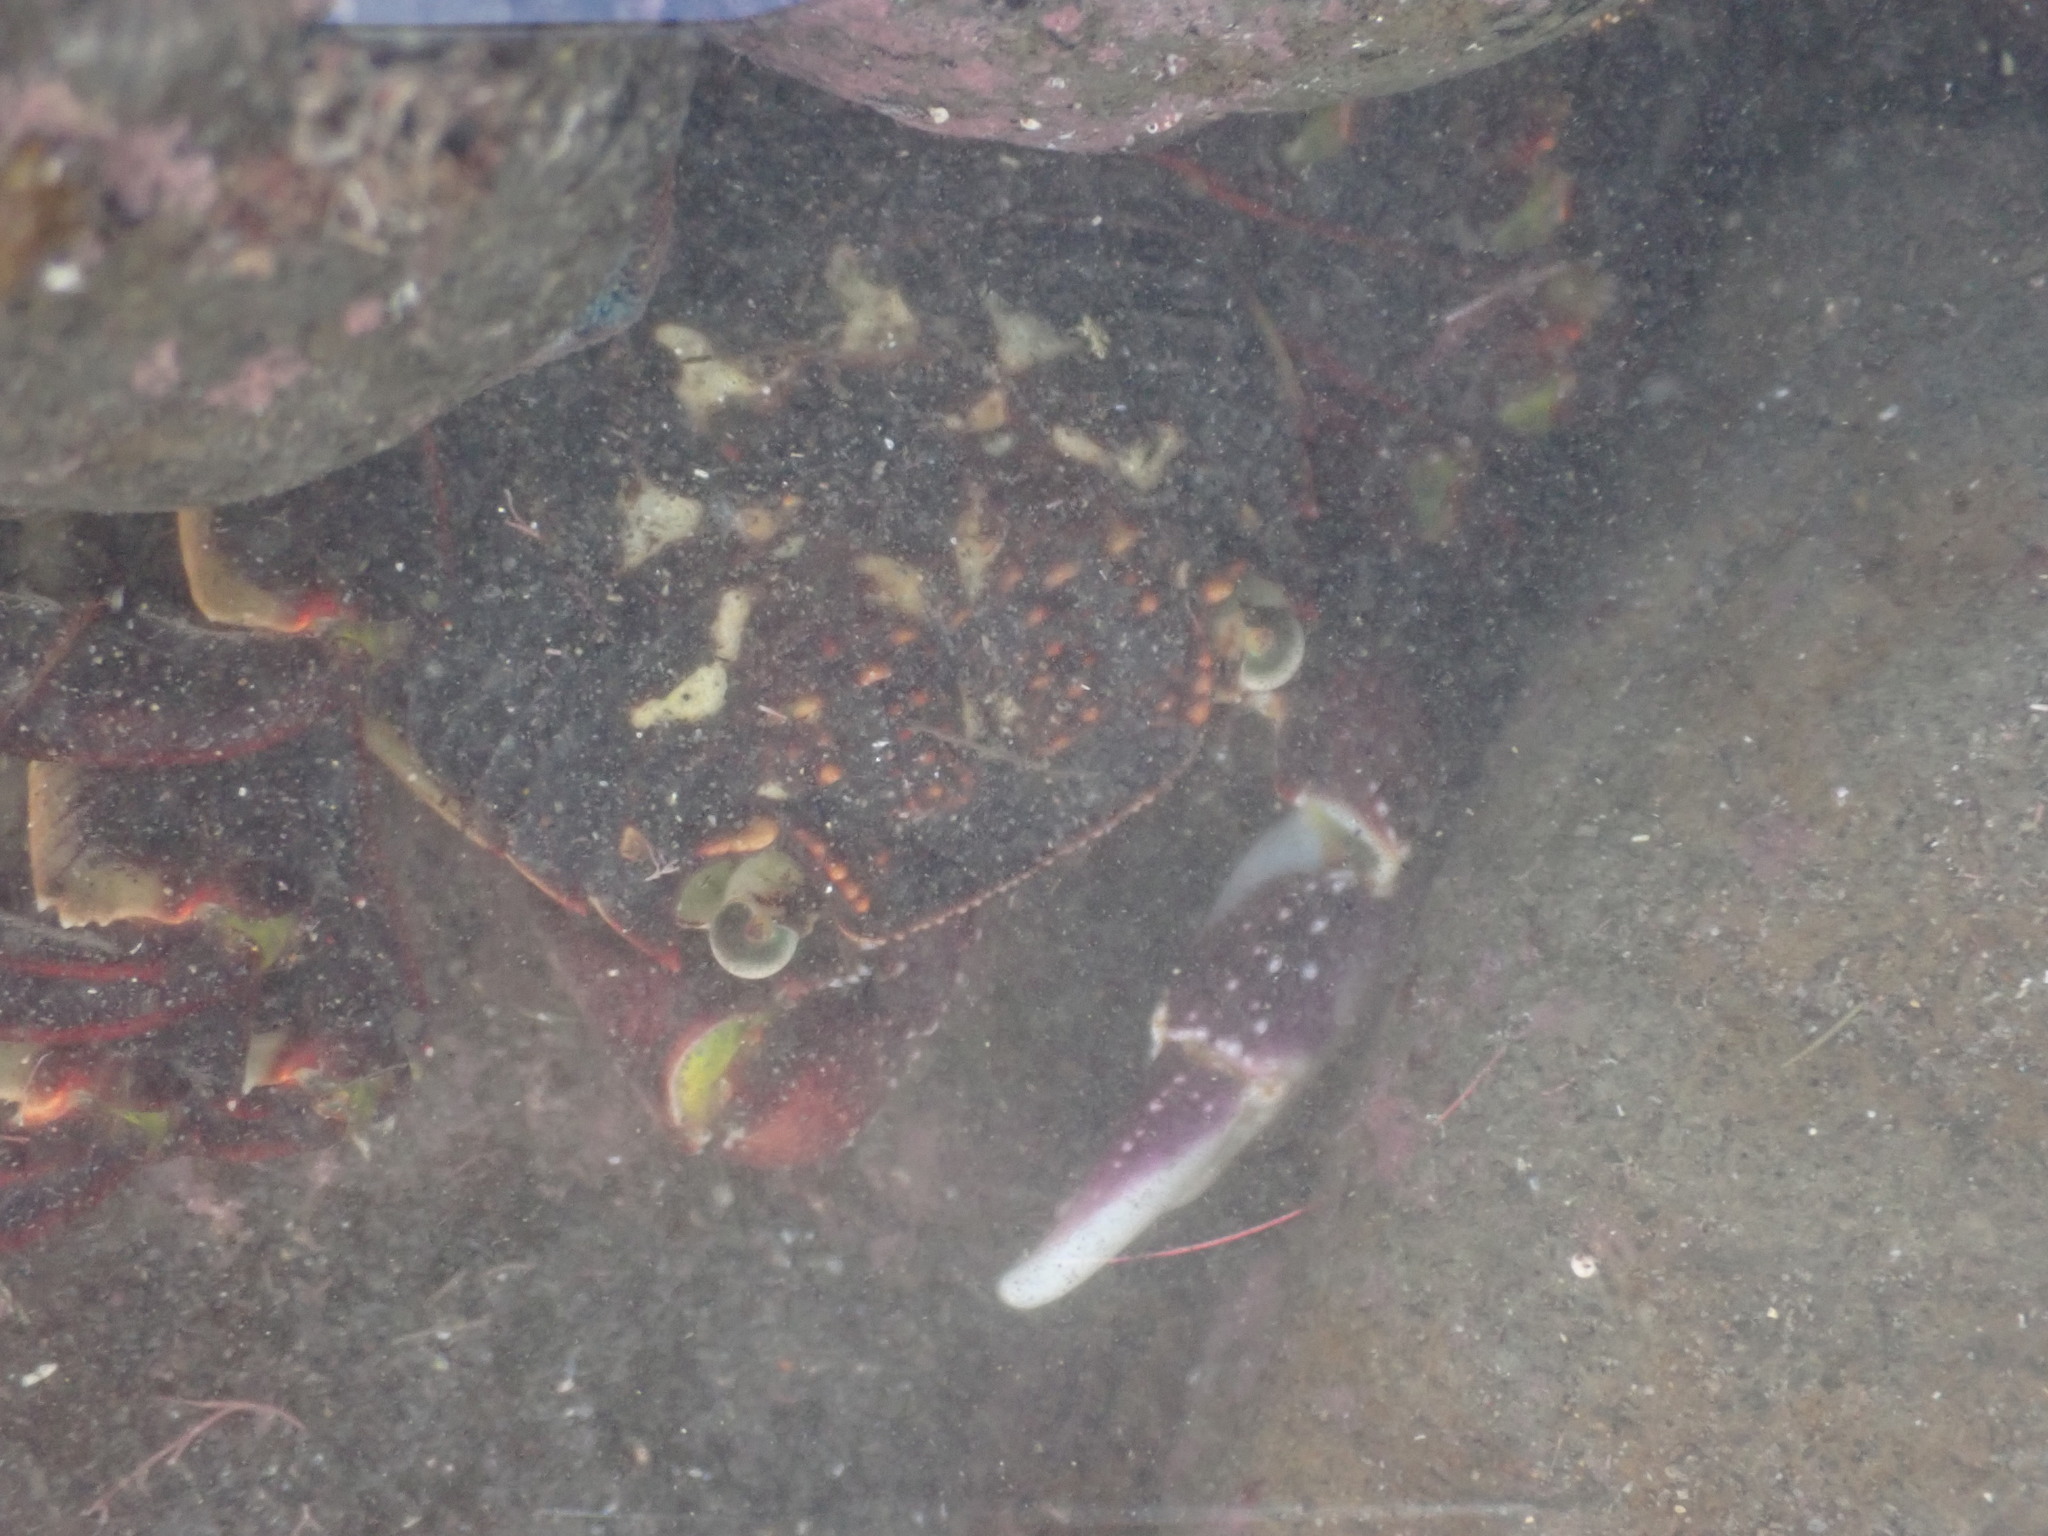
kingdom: Animalia
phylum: Arthropoda
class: Malacostraca
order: Decapoda
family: Grapsidae
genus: Leptograpsus
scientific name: Leptograpsus variegatus
